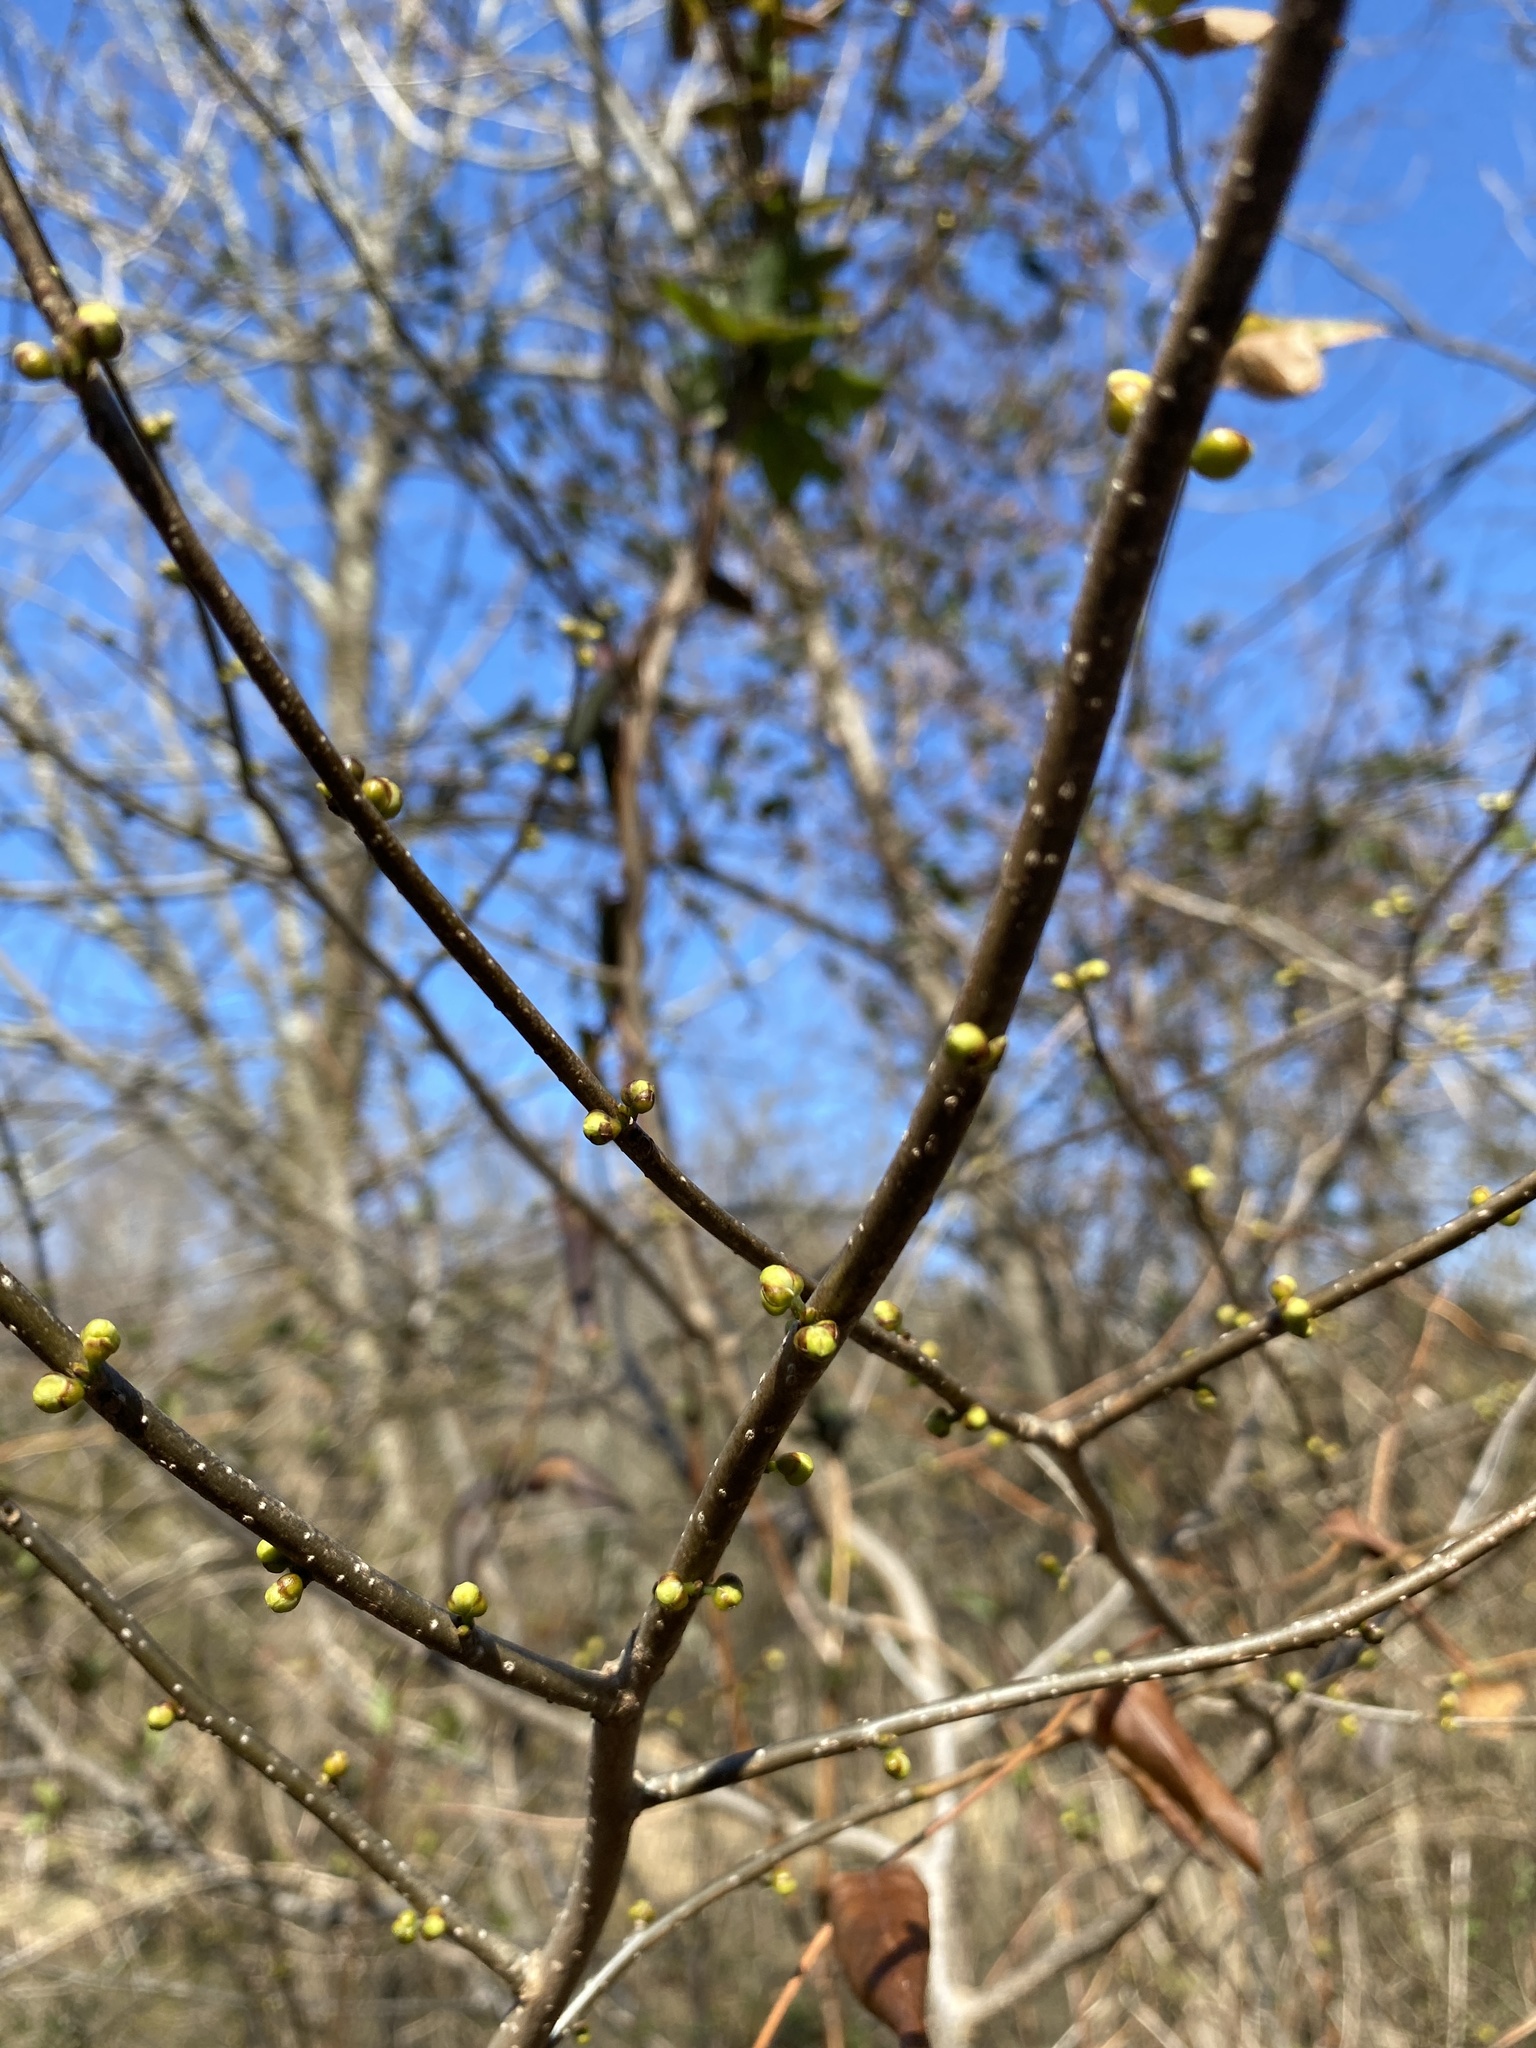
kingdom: Plantae
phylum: Tracheophyta
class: Magnoliopsida
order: Laurales
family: Lauraceae
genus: Lindera
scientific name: Lindera benzoin
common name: Spicebush
